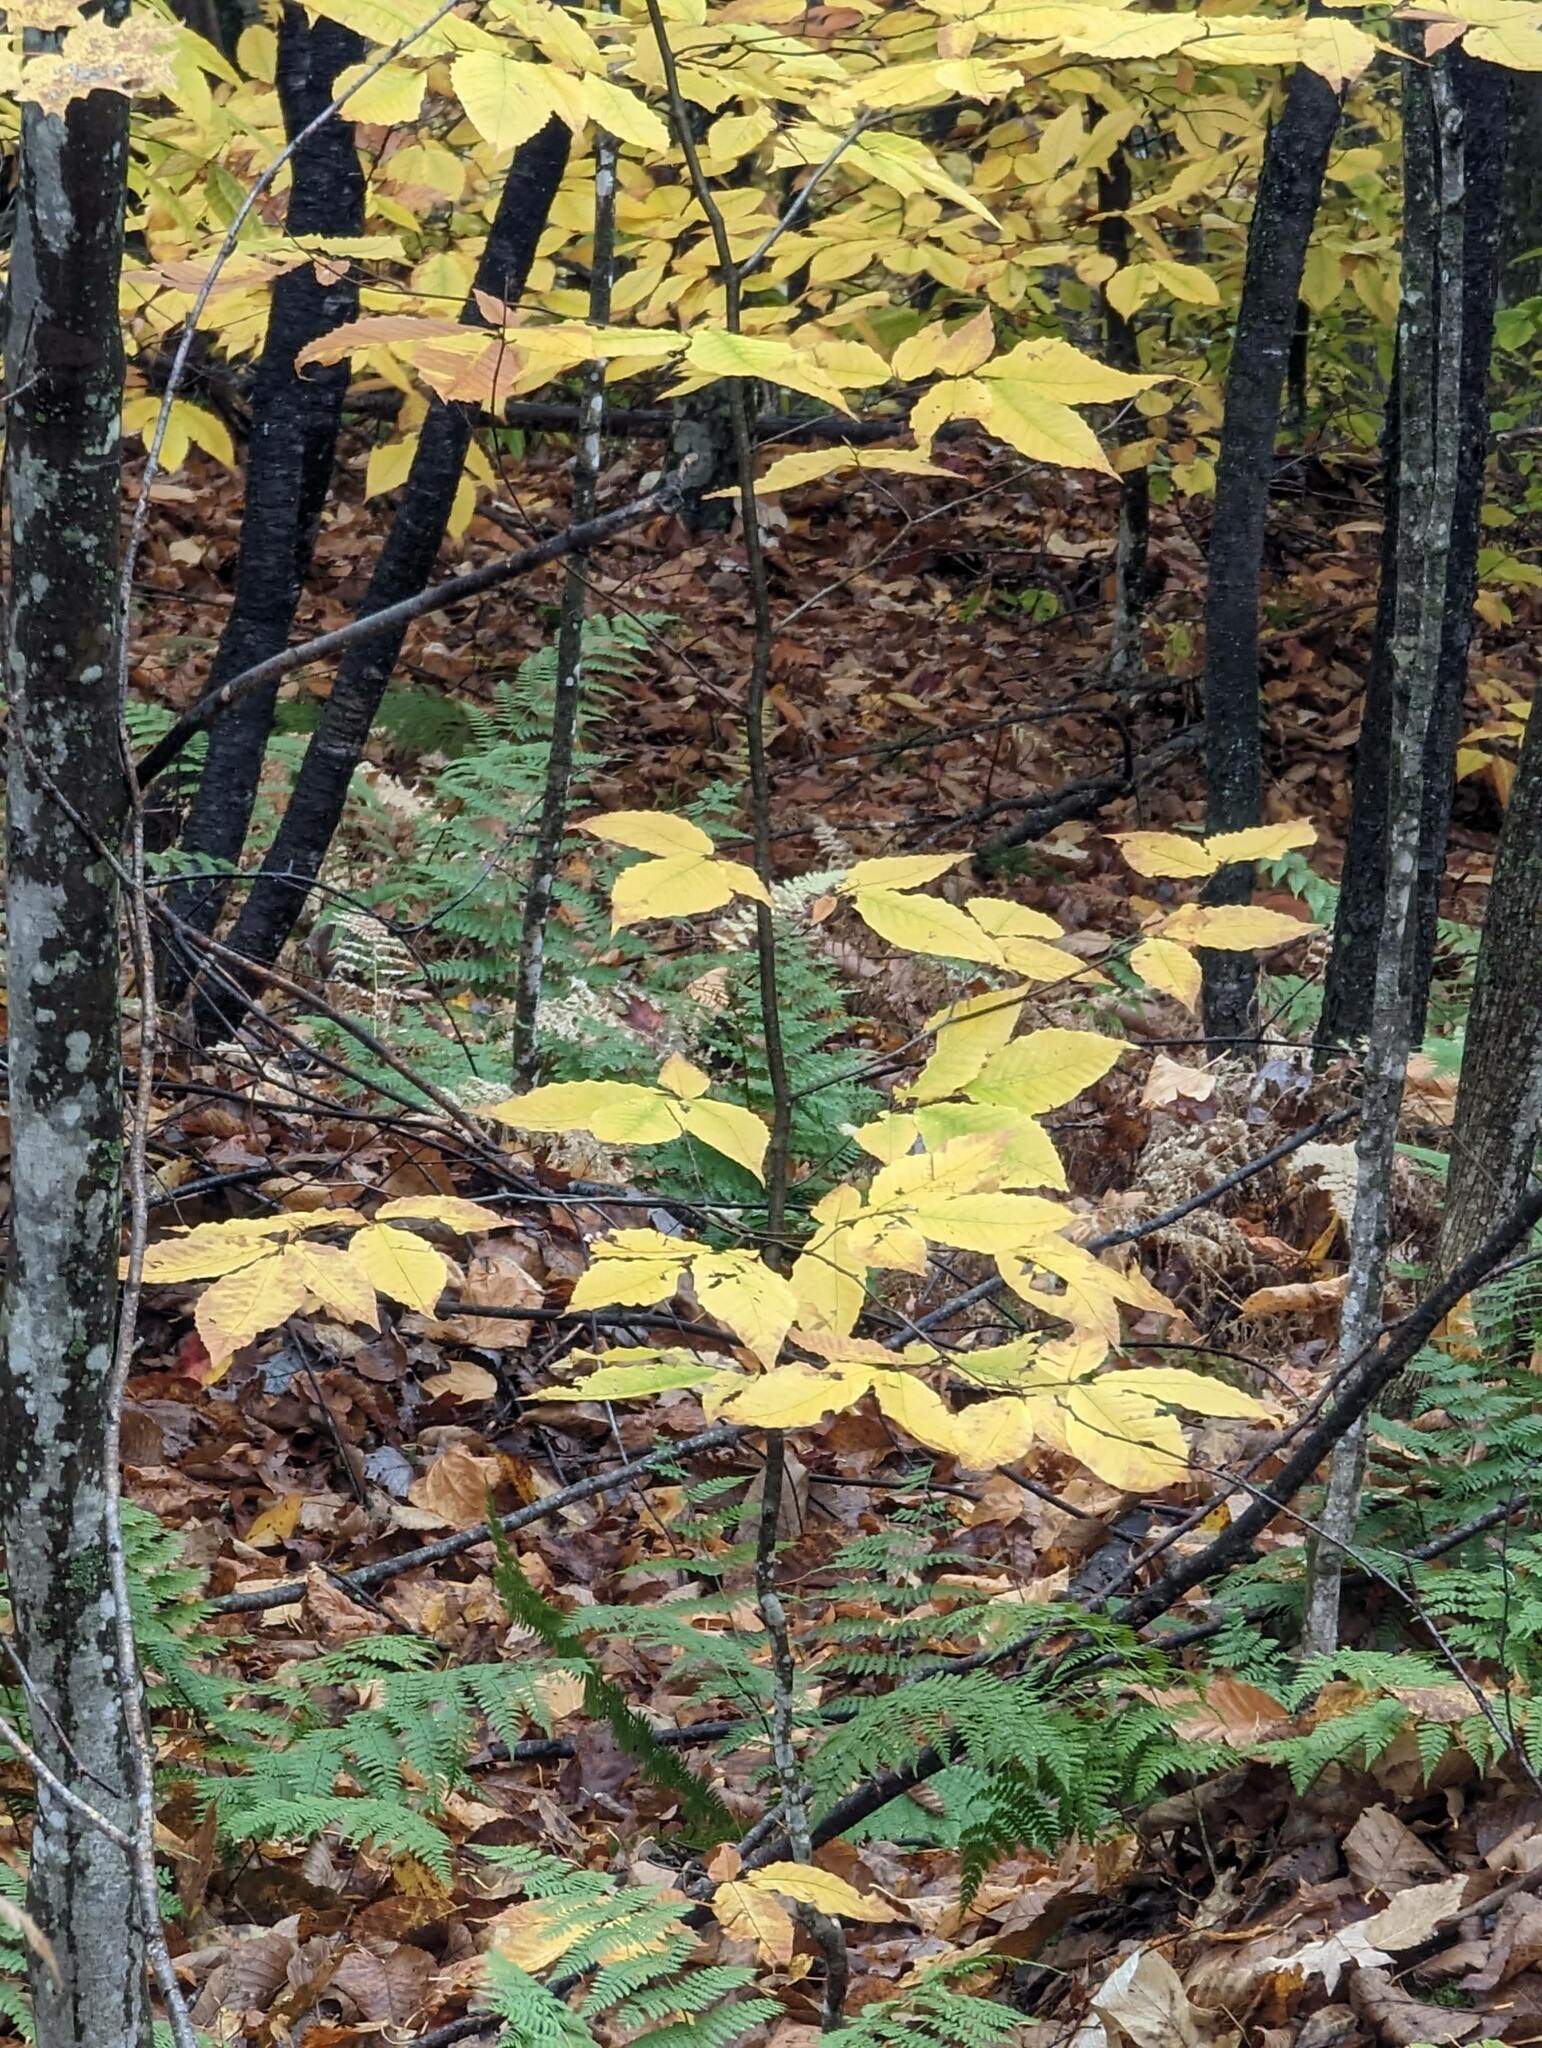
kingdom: Plantae
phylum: Tracheophyta
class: Magnoliopsida
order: Fagales
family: Fagaceae
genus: Fagus
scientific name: Fagus grandifolia
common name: American beech
